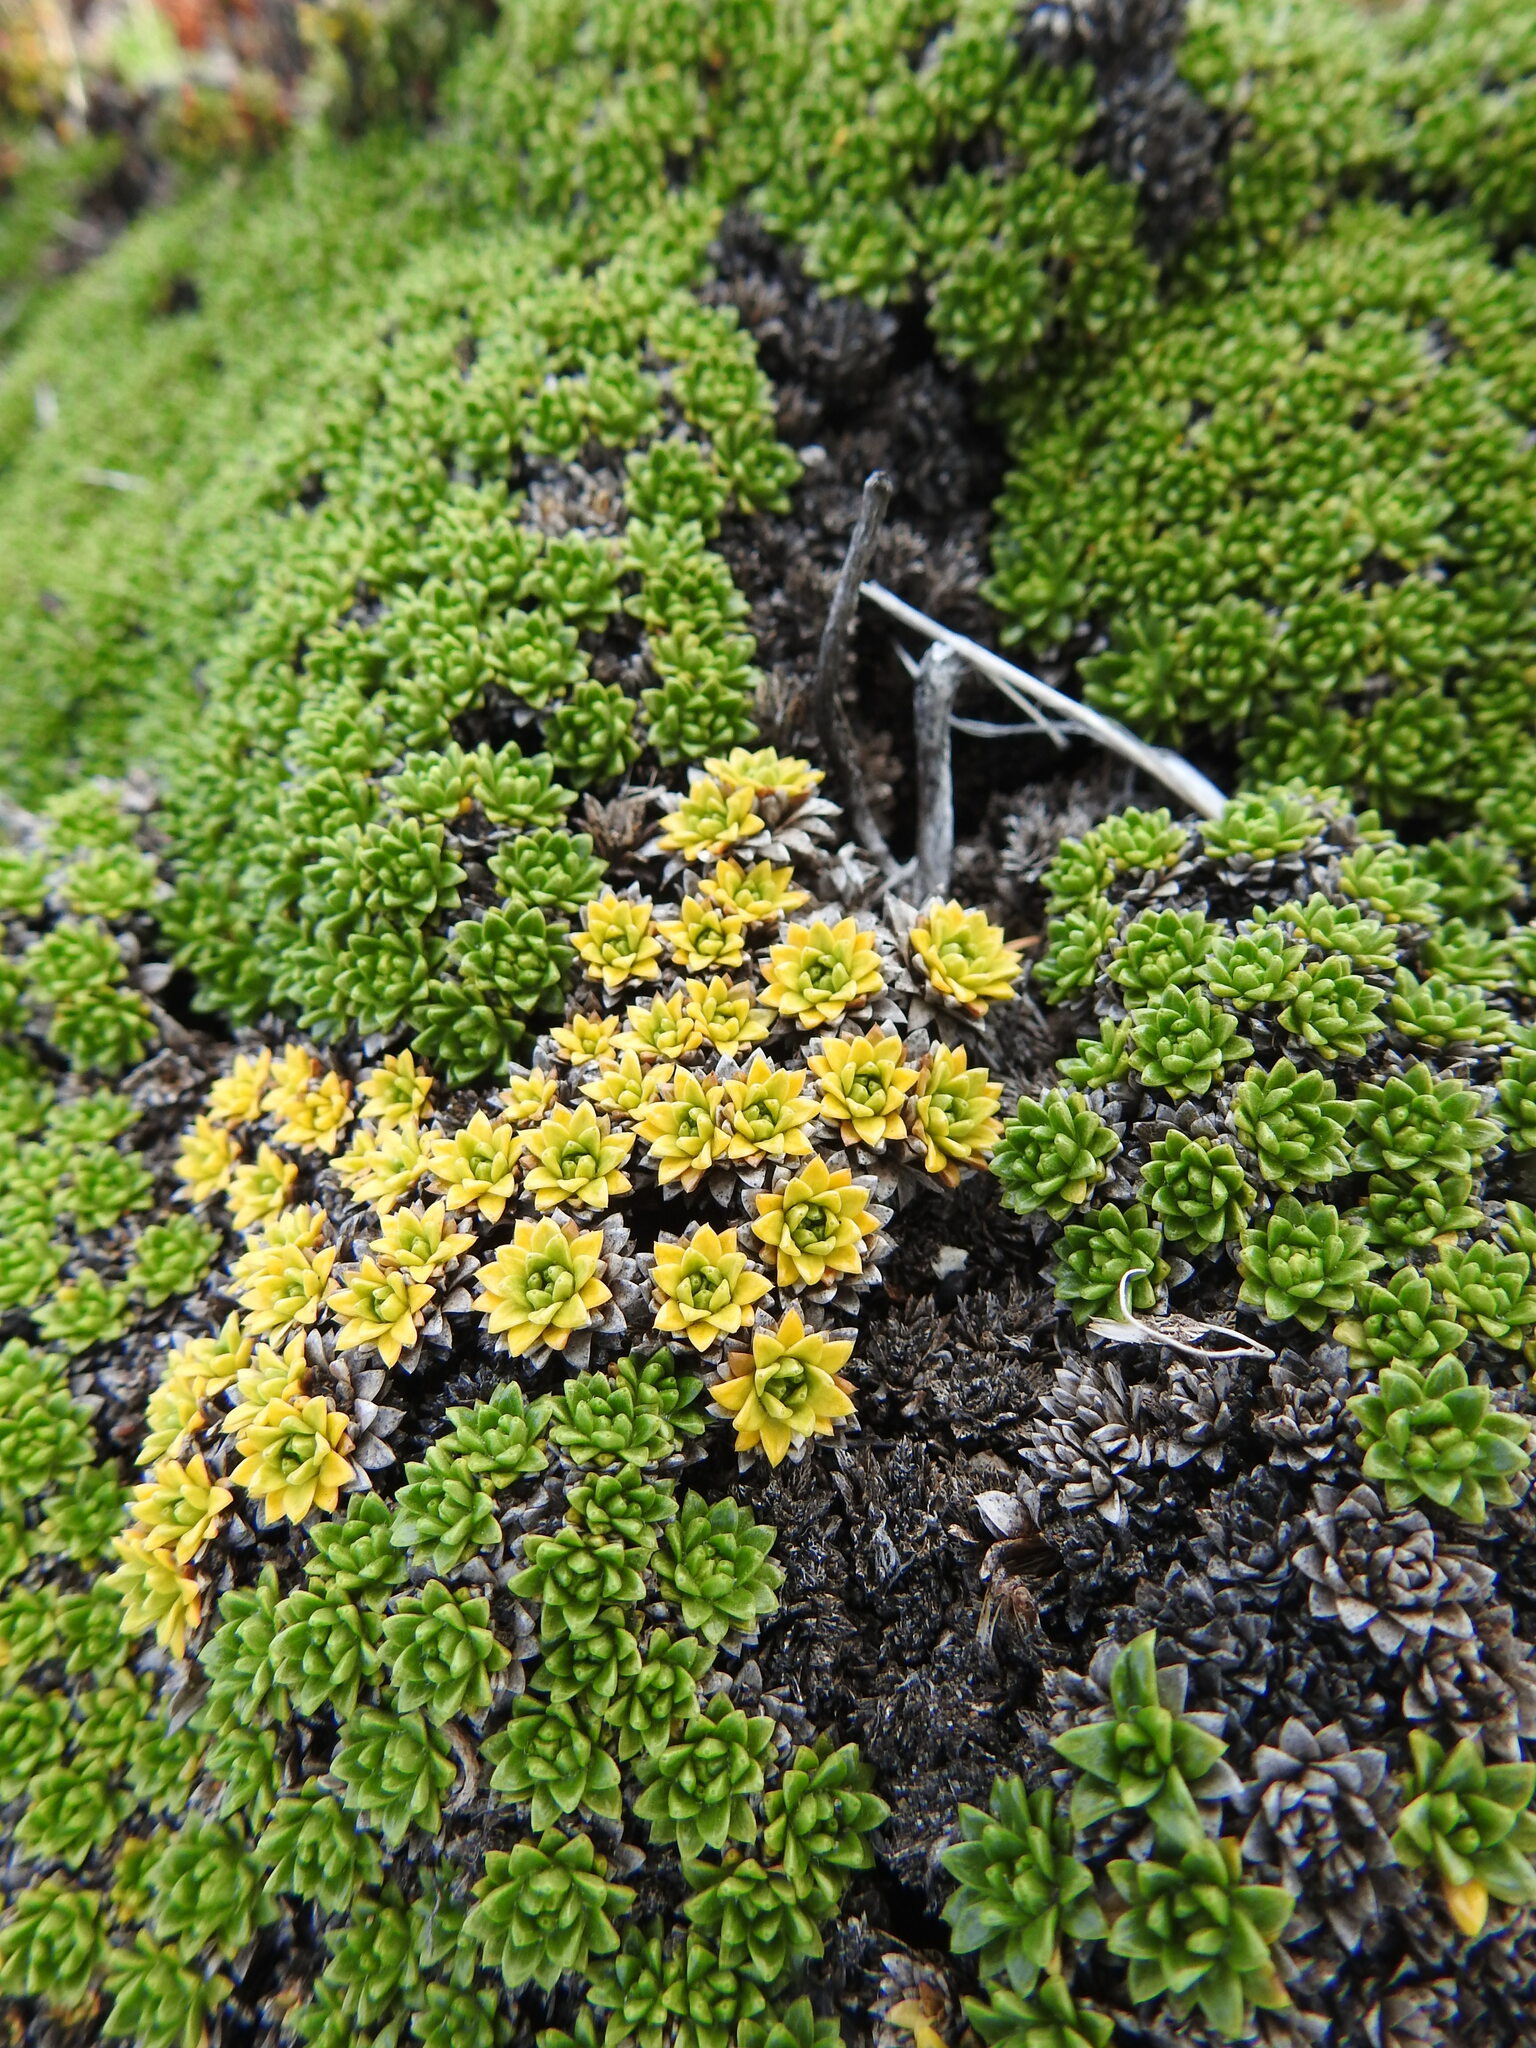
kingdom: Plantae
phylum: Tracheophyta
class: Magnoliopsida
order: Apiales
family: Apiaceae
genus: Azorella
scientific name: Azorella monantha
